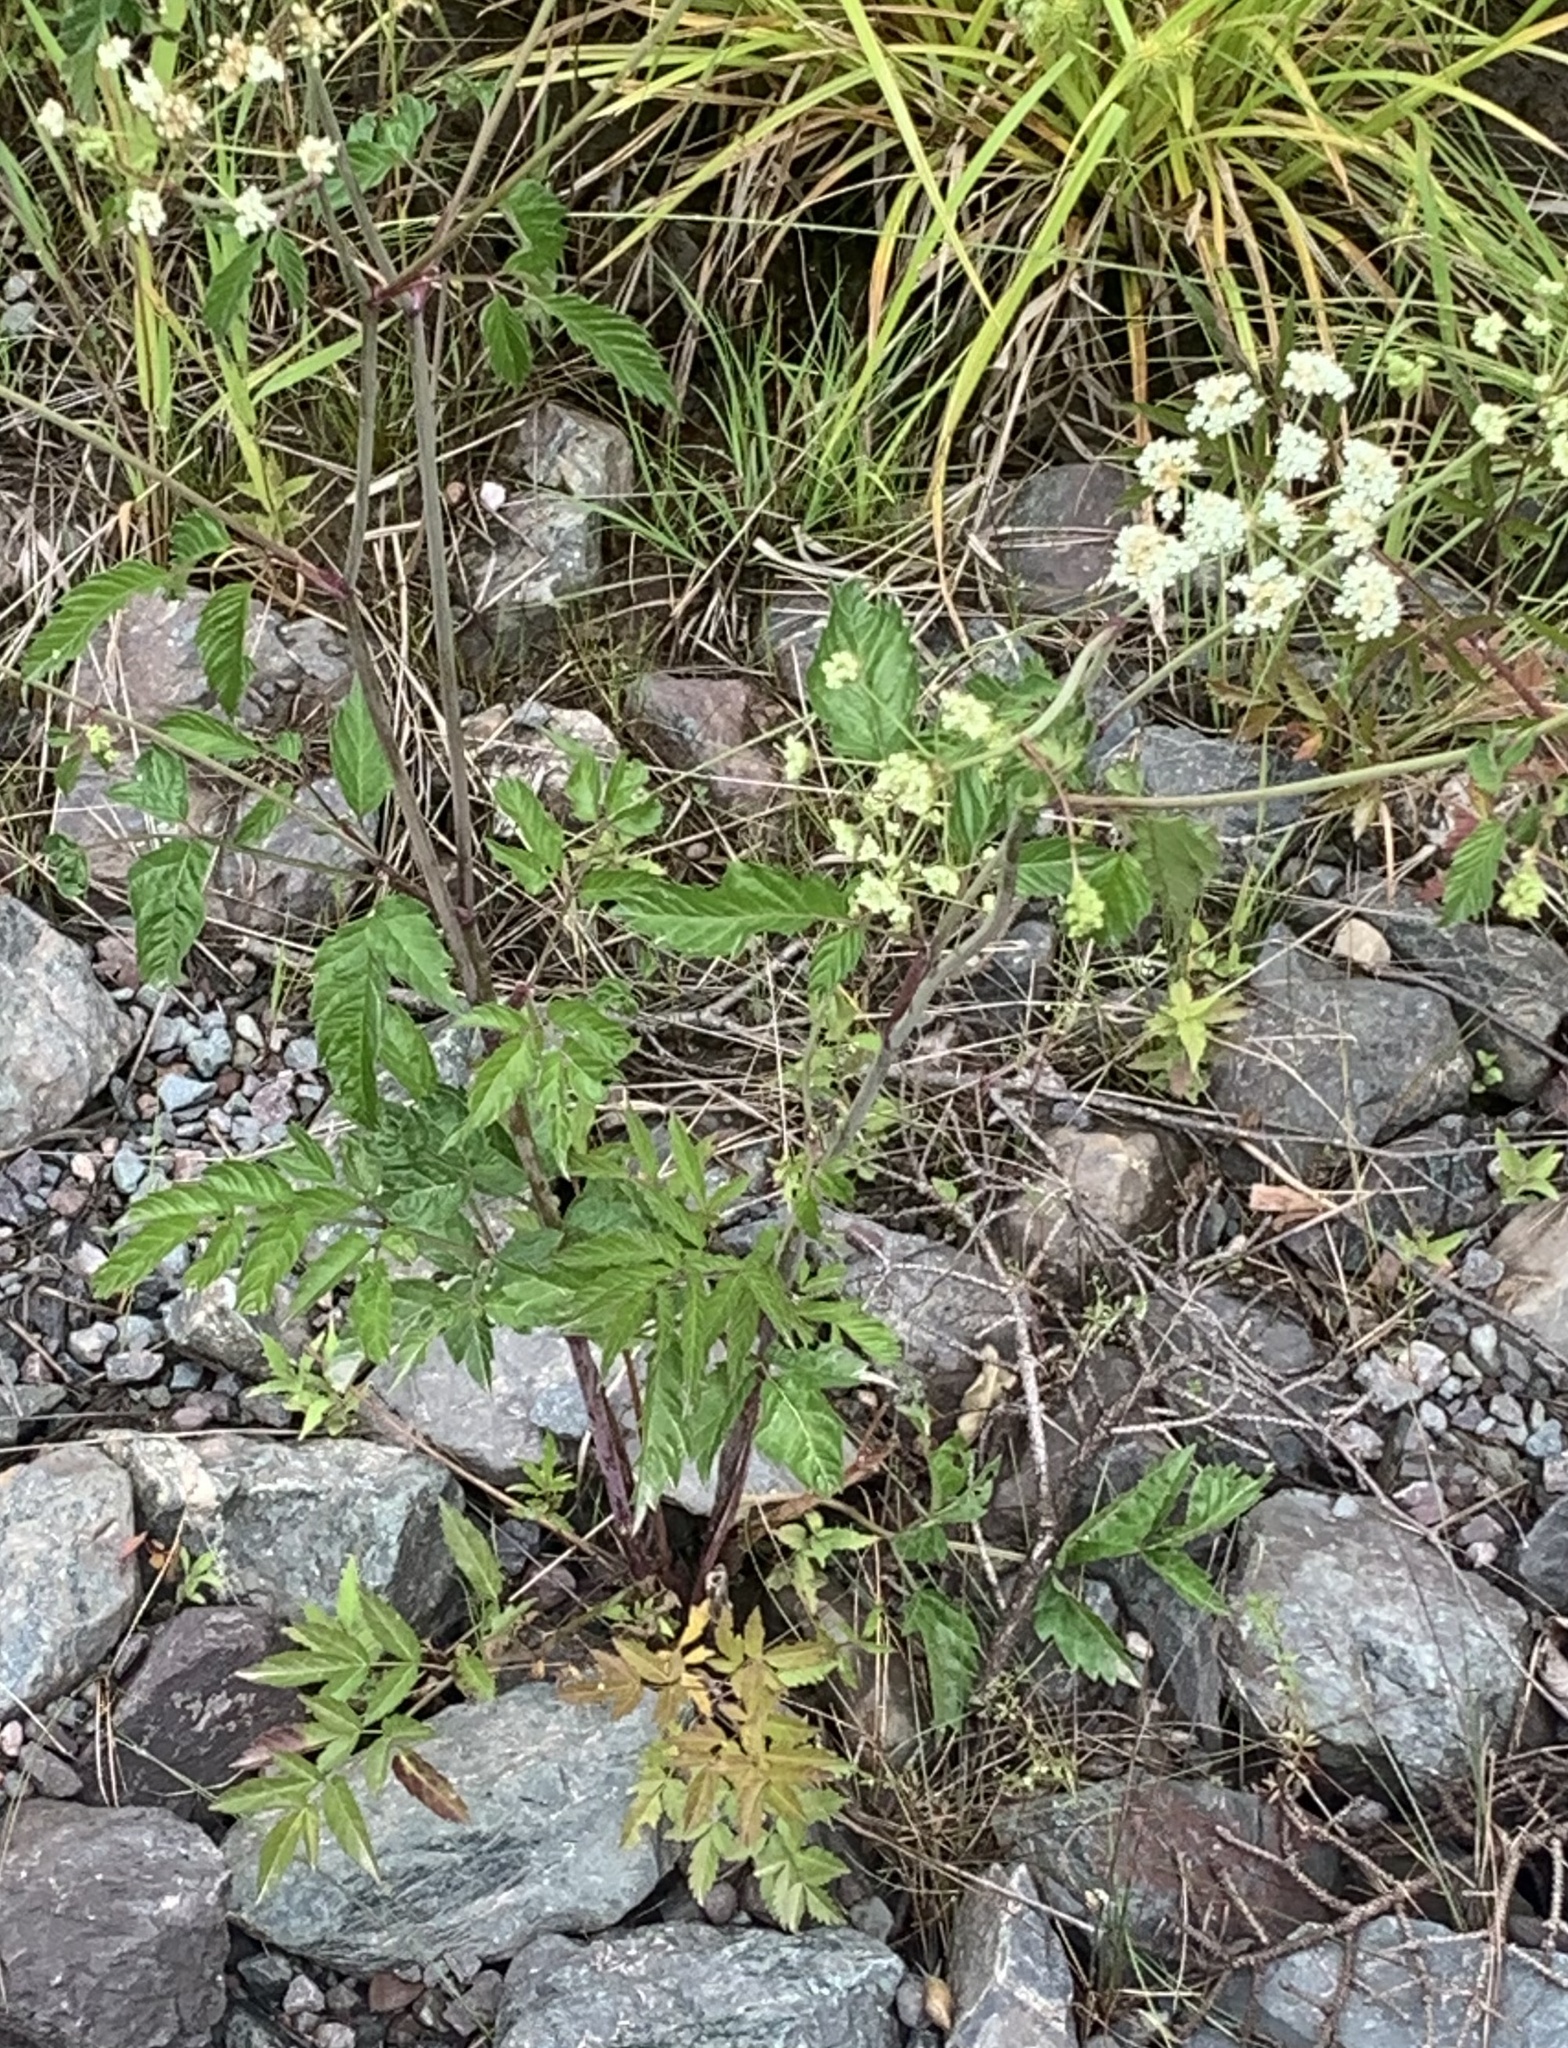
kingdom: Plantae
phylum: Tracheophyta
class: Magnoliopsida
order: Apiales
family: Apiaceae
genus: Cicuta
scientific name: Cicuta maculata
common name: Spotted cowbane
